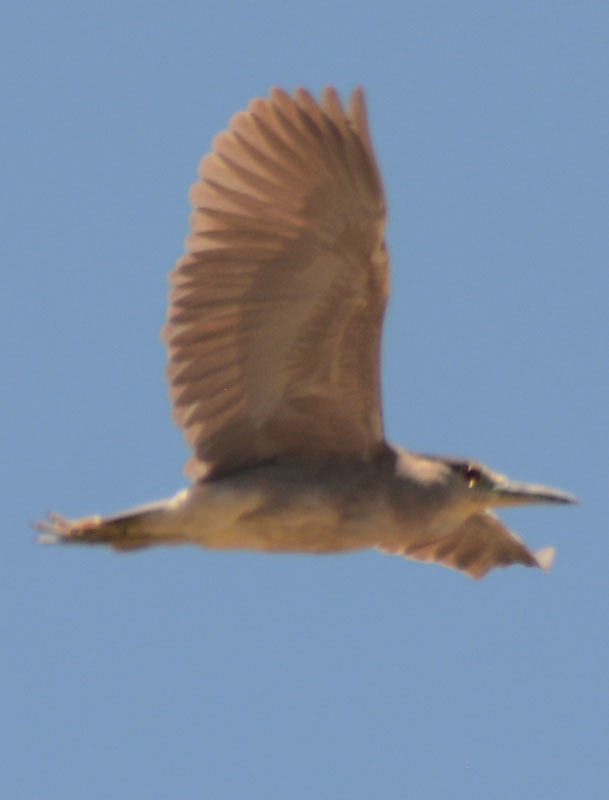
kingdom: Animalia
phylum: Chordata
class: Aves
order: Pelecaniformes
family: Ardeidae
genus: Nycticorax
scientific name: Nycticorax nycticorax
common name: Black-crowned night heron
